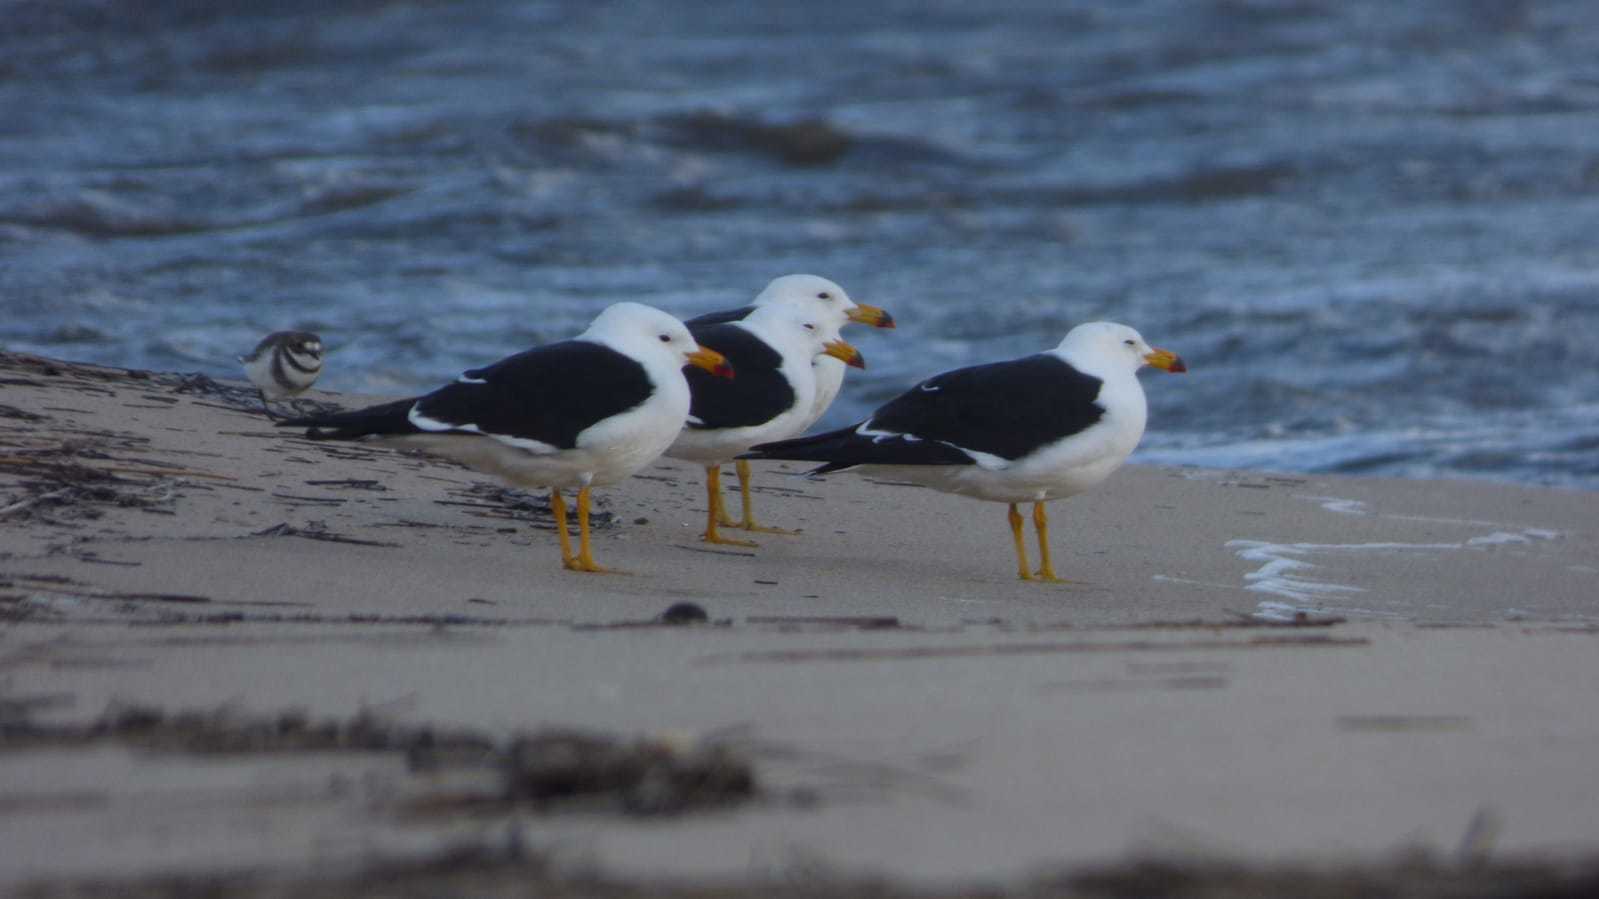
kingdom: Animalia
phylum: Chordata
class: Aves
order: Charadriiformes
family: Laridae
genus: Larus
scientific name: Larus atlanticus
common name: Olrog's gull
